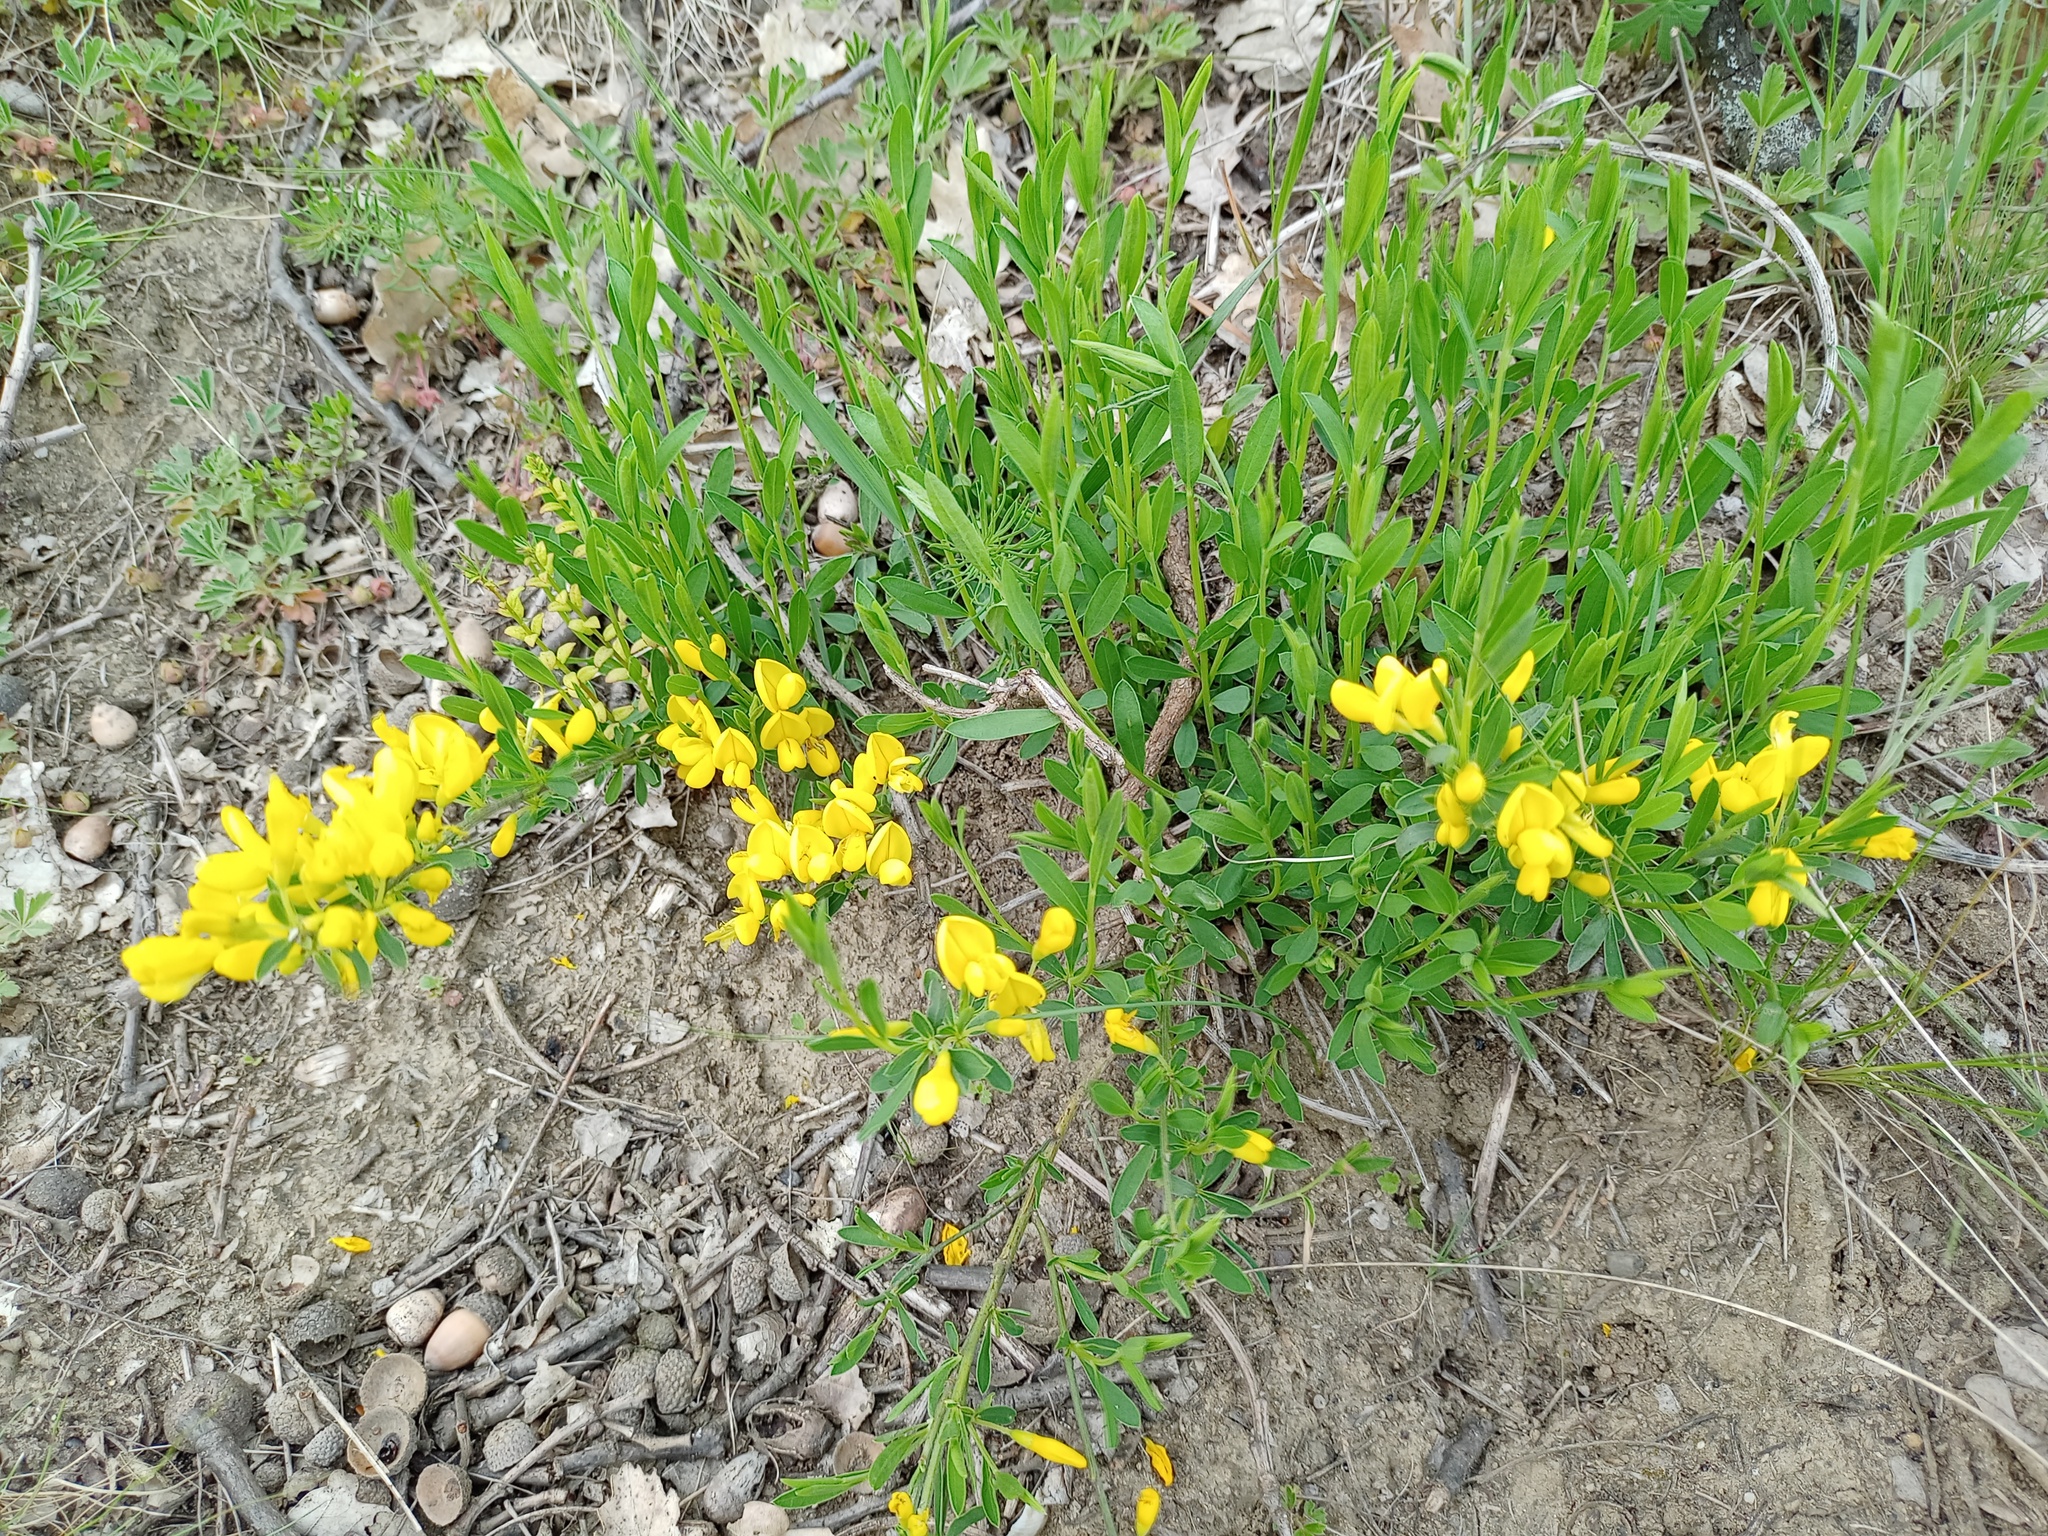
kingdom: Plantae
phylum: Tracheophyta
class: Magnoliopsida
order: Fabales
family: Fabaceae
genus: Genista
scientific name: Genista tinctoria
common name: Dyer's greenweed
